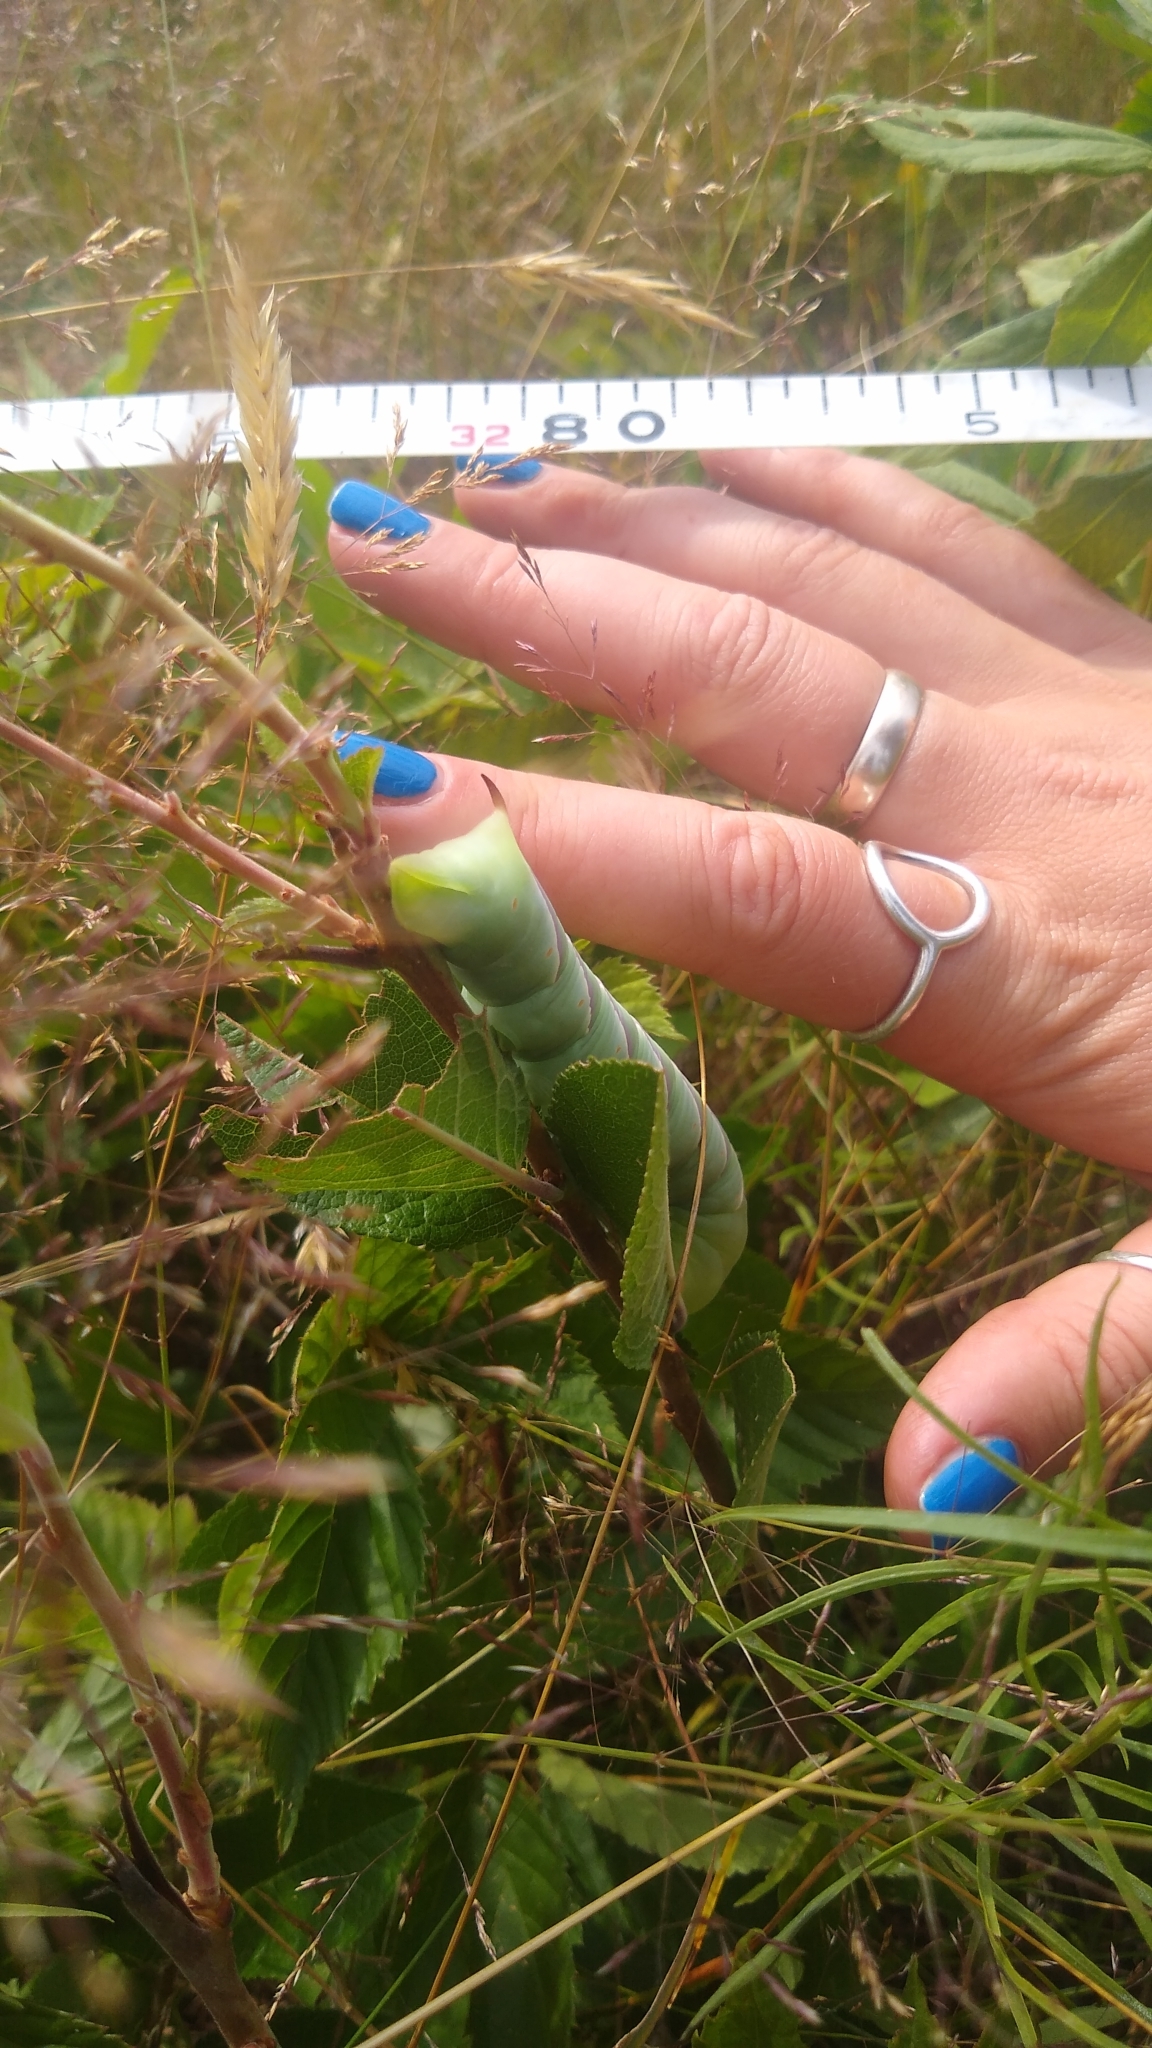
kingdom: Animalia
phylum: Arthropoda
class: Insecta
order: Lepidoptera
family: Sphingidae
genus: Sphinx
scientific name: Sphinx drupiferarum
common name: Wild cherry sphinx
